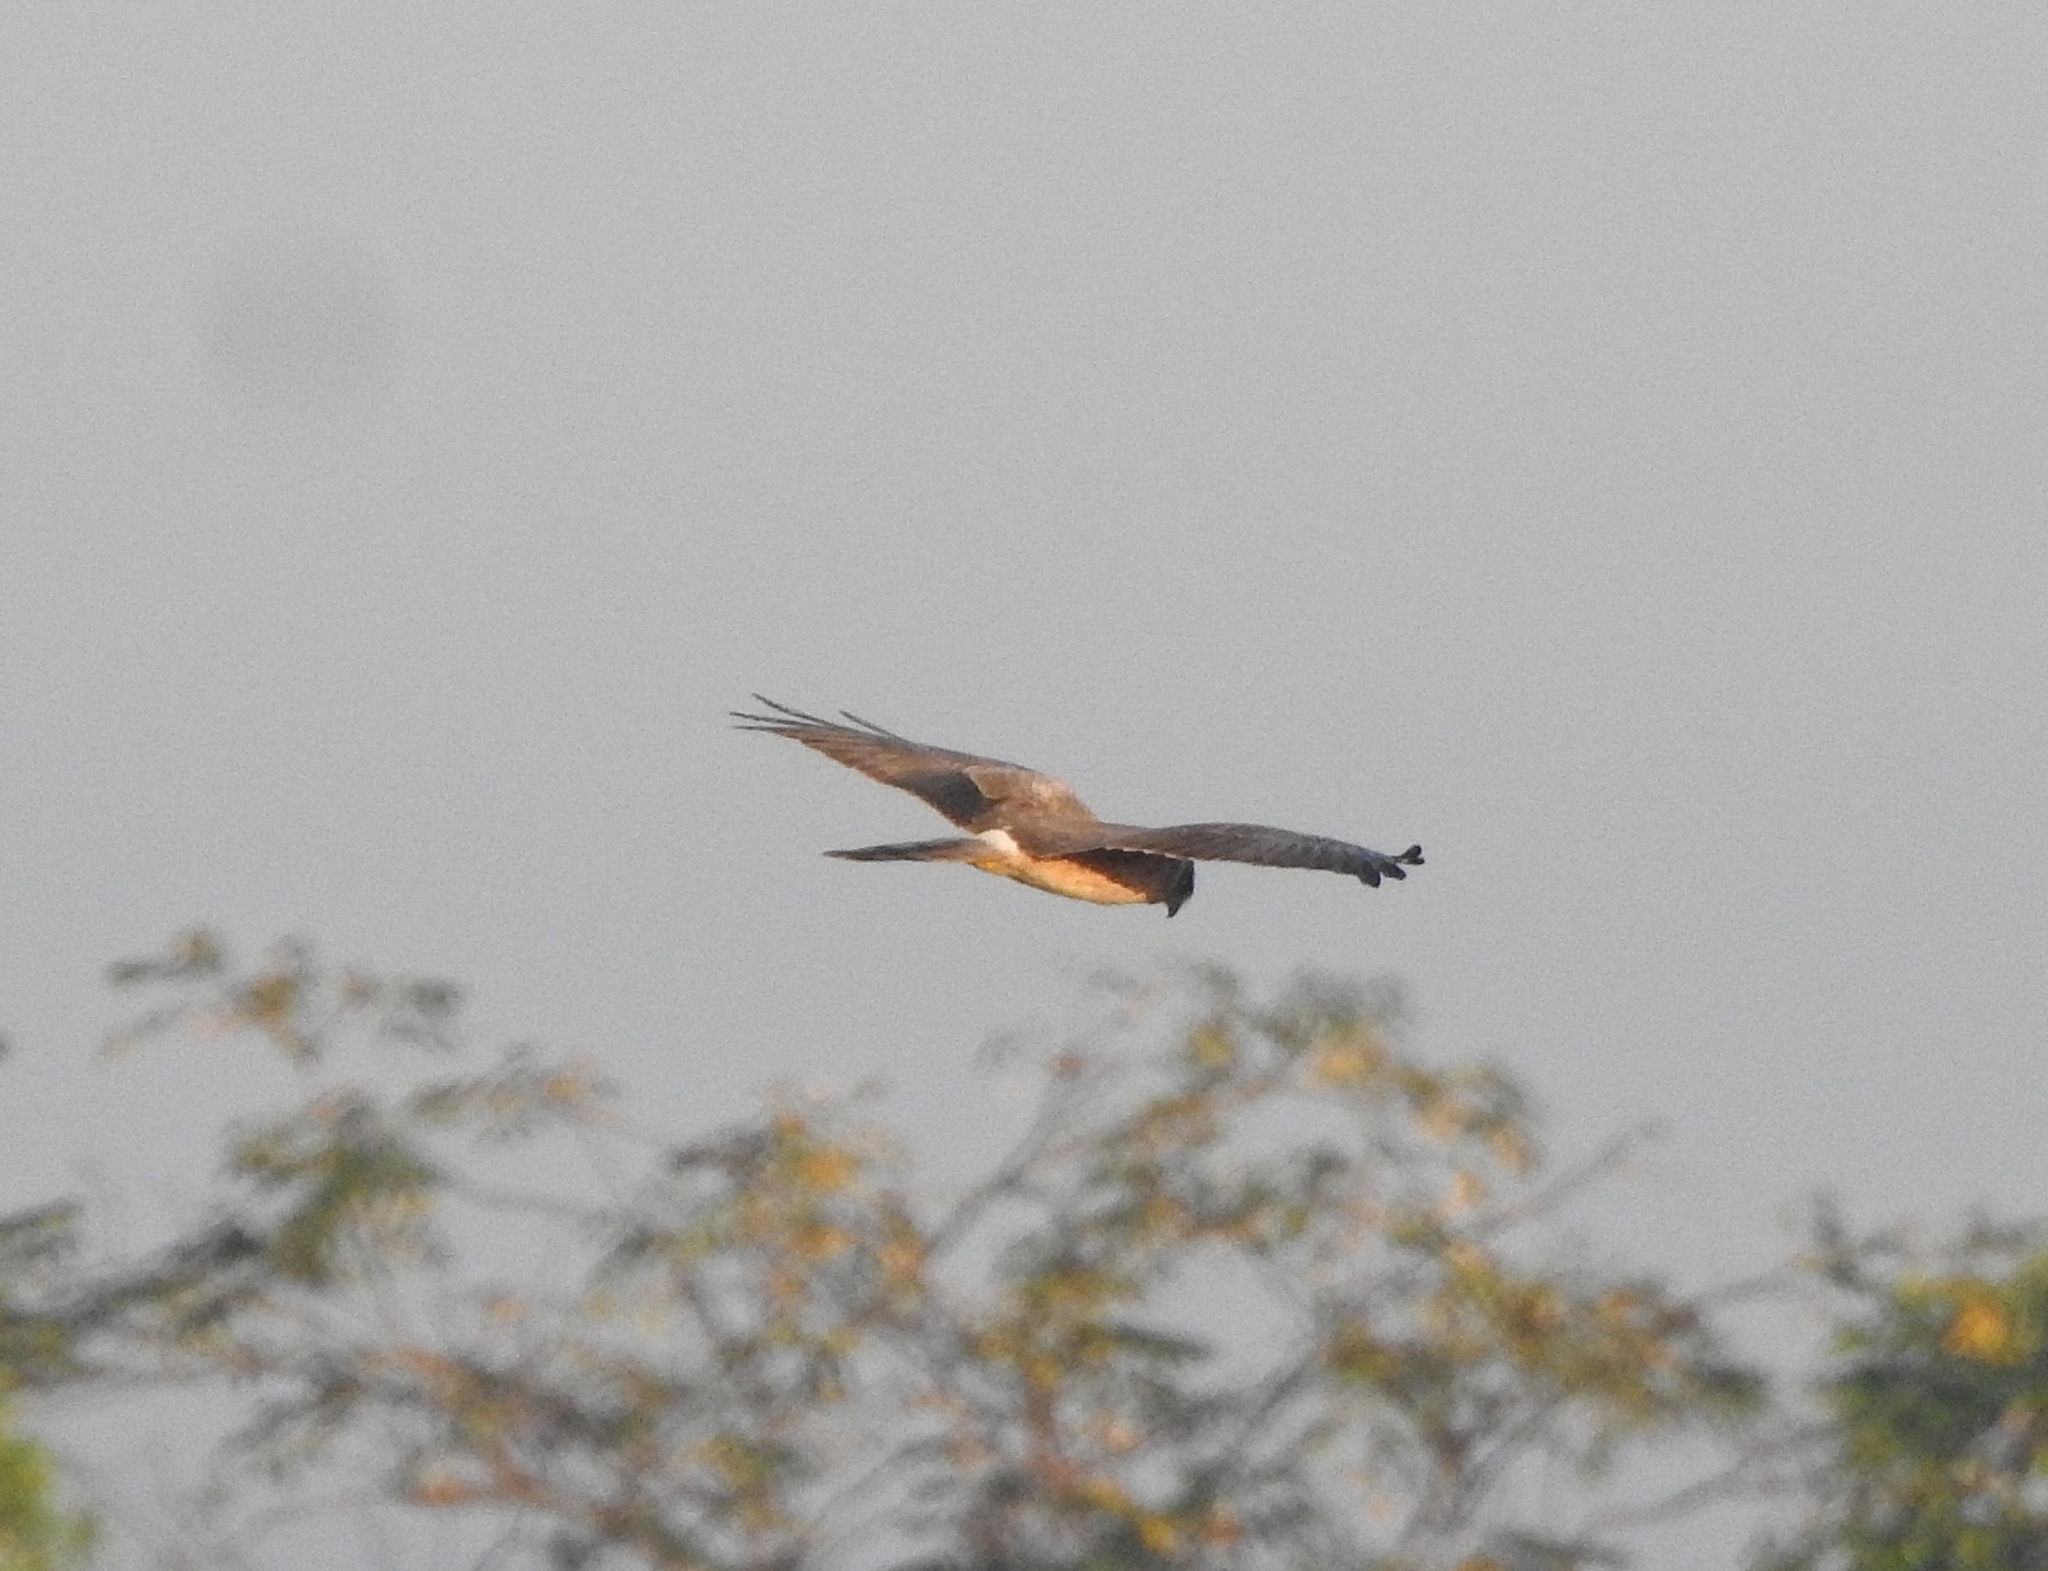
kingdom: Animalia
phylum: Chordata
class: Aves
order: Accipitriformes
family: Accipitridae
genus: Circus
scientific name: Circus macrourus
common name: Pallid harrier
